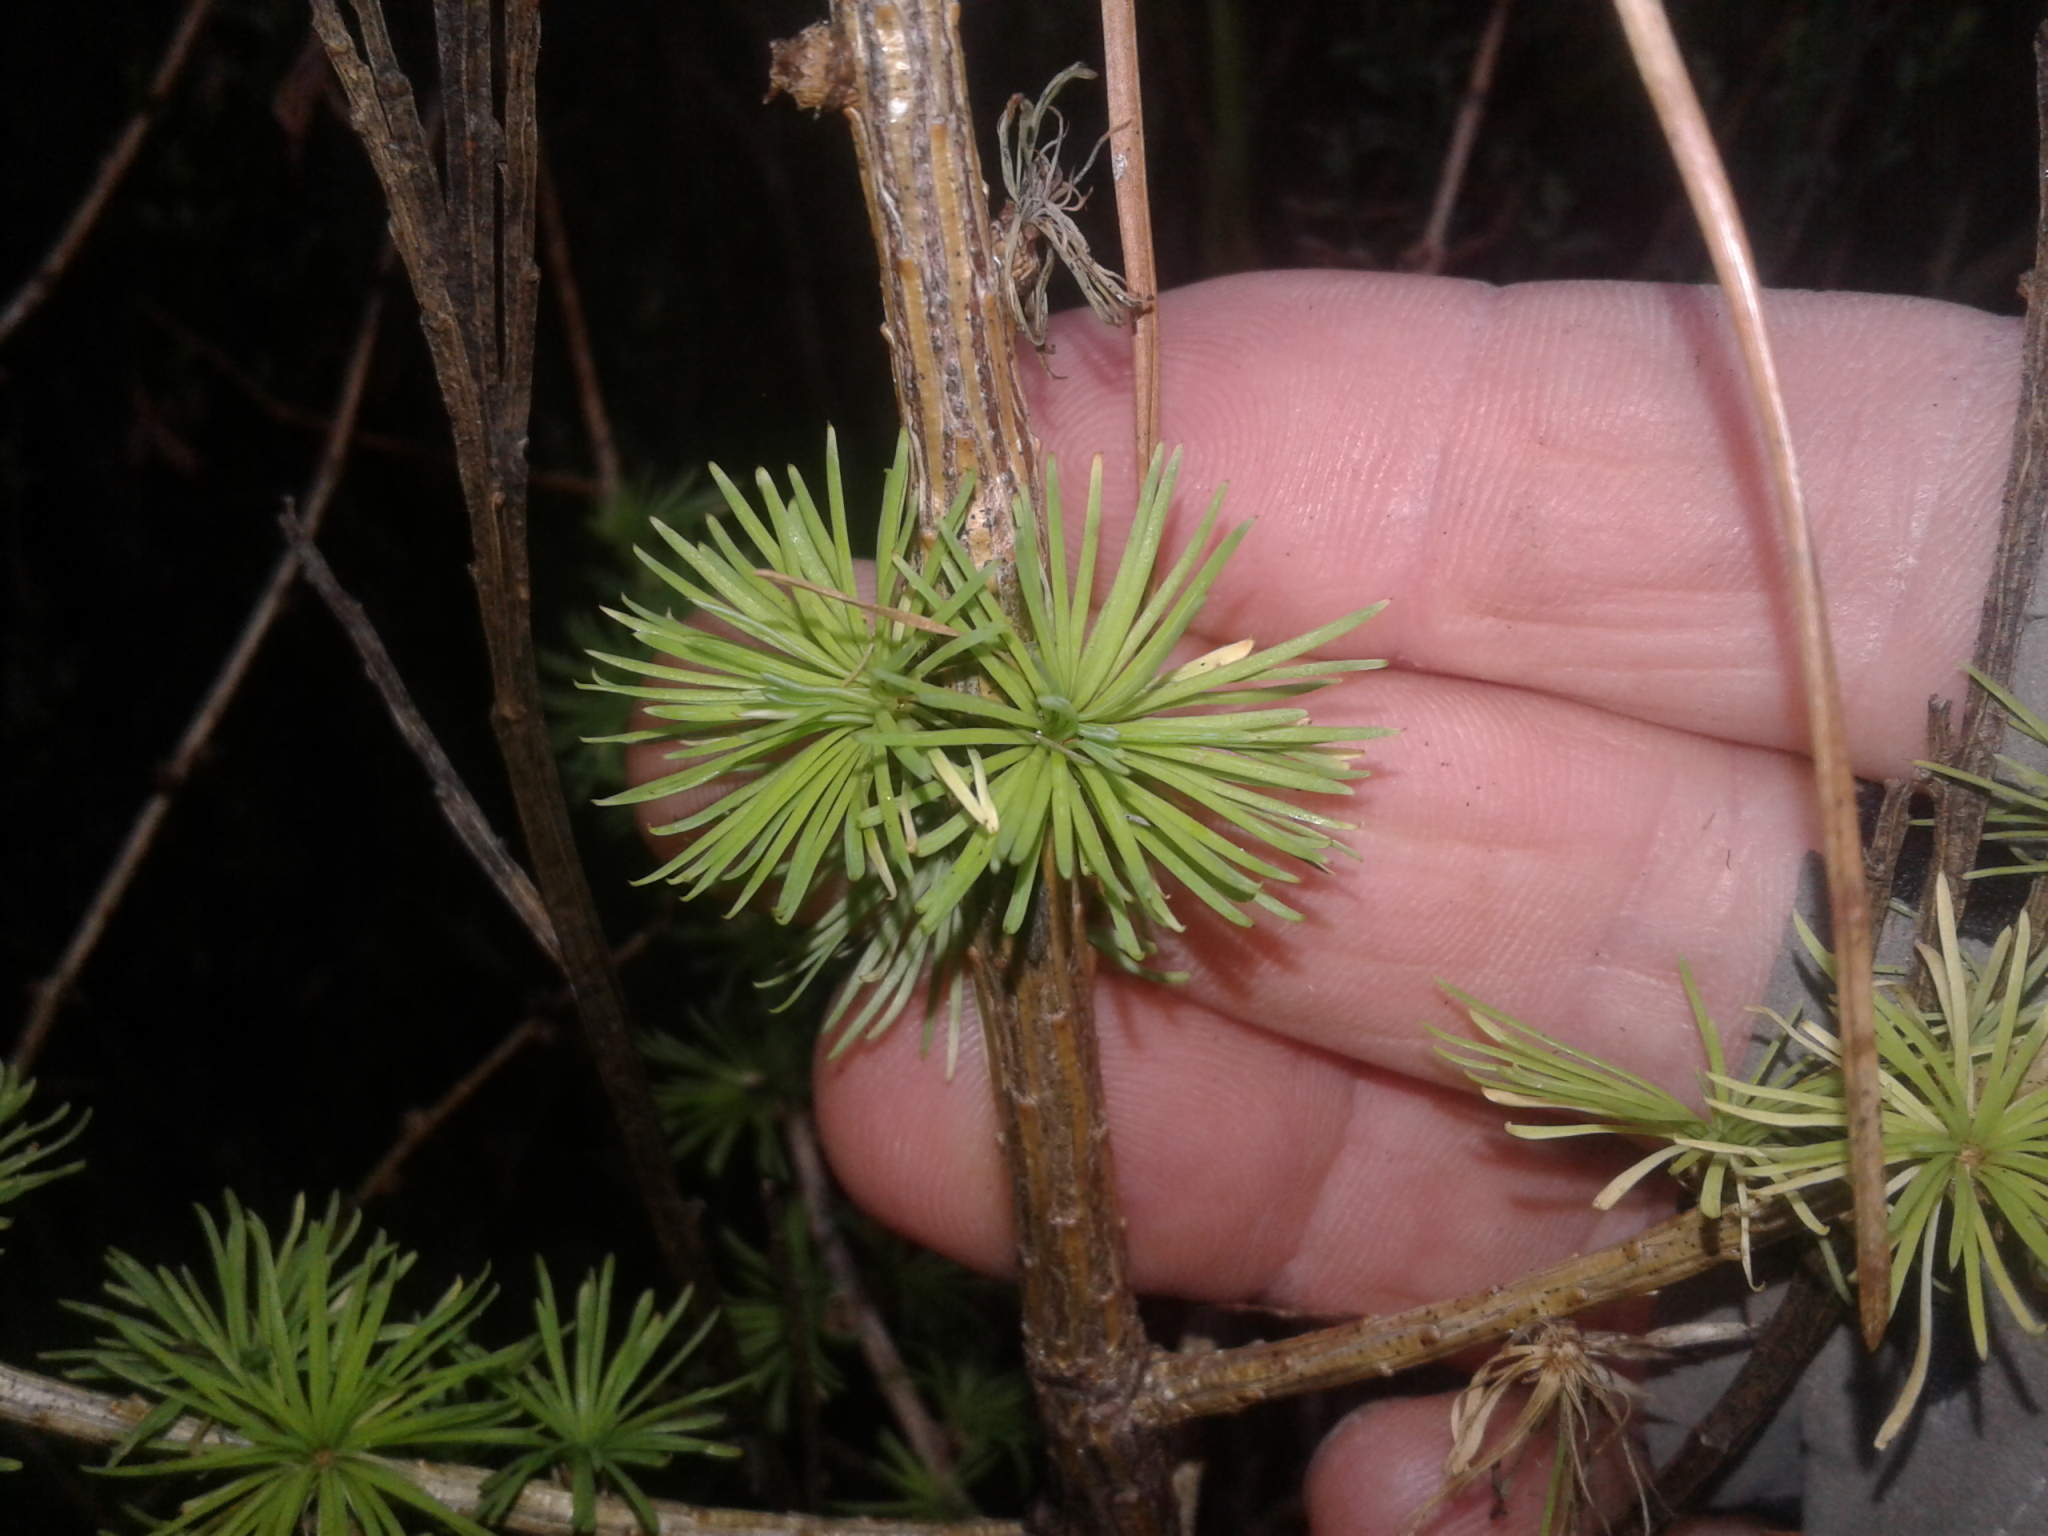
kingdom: Plantae
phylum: Tracheophyta
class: Pinopsida
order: Pinales
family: Pinaceae
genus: Larix
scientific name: Larix decidua
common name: European larch
